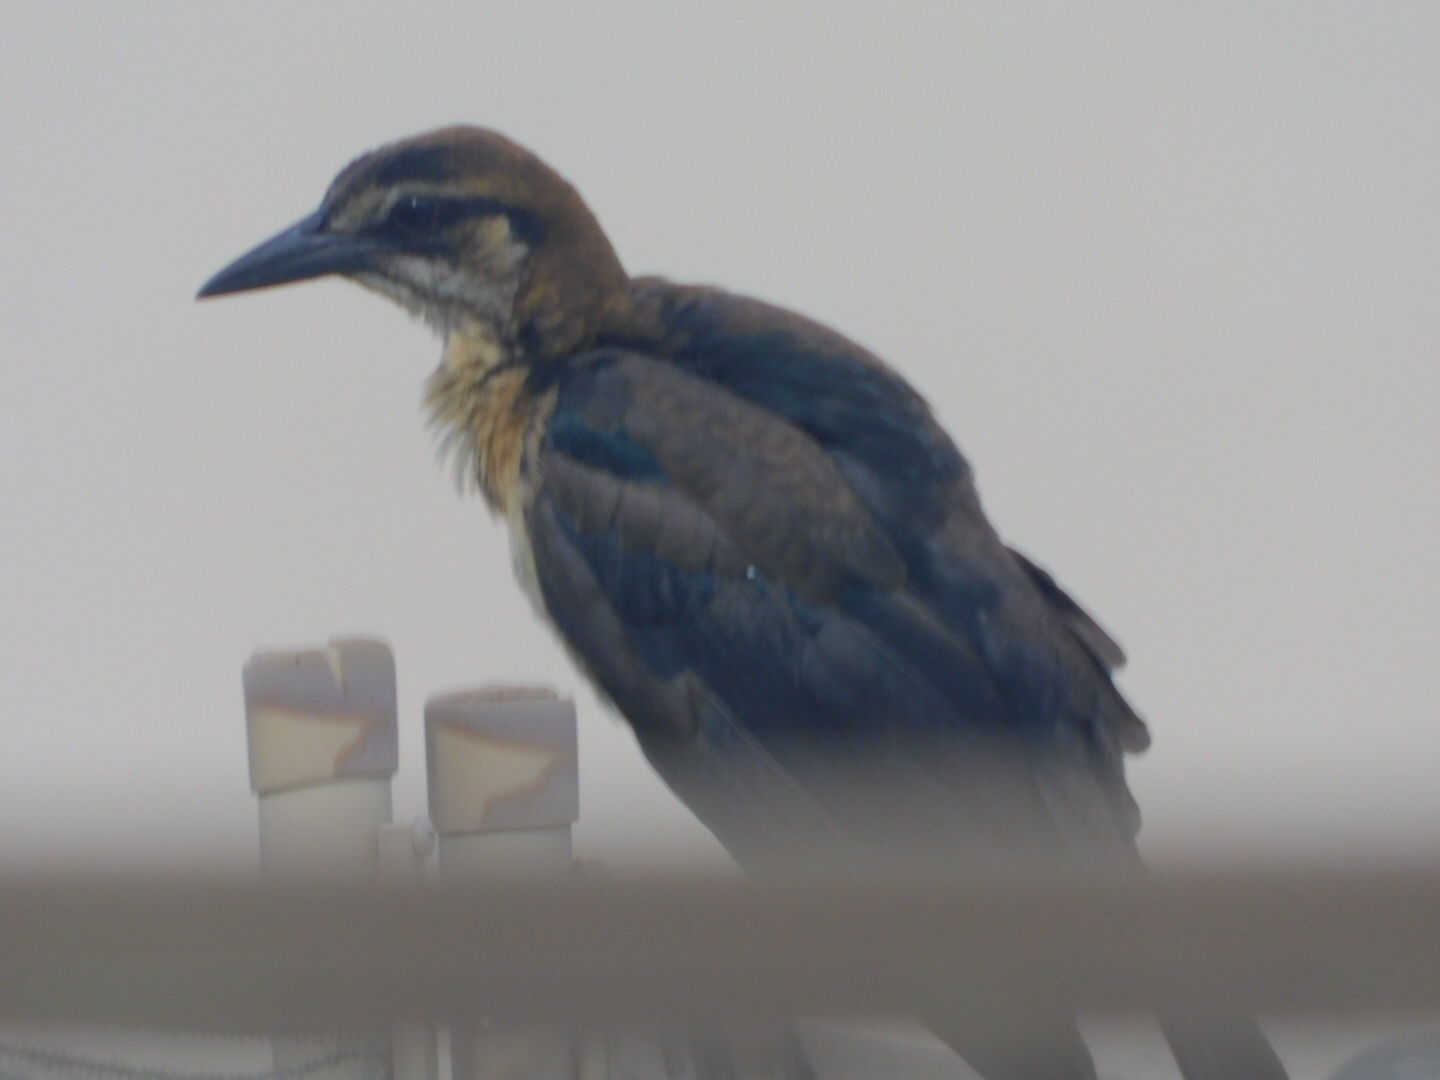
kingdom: Animalia
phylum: Chordata
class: Aves
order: Passeriformes
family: Icteridae
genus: Quiscalus
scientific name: Quiscalus major
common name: Boat-tailed grackle
